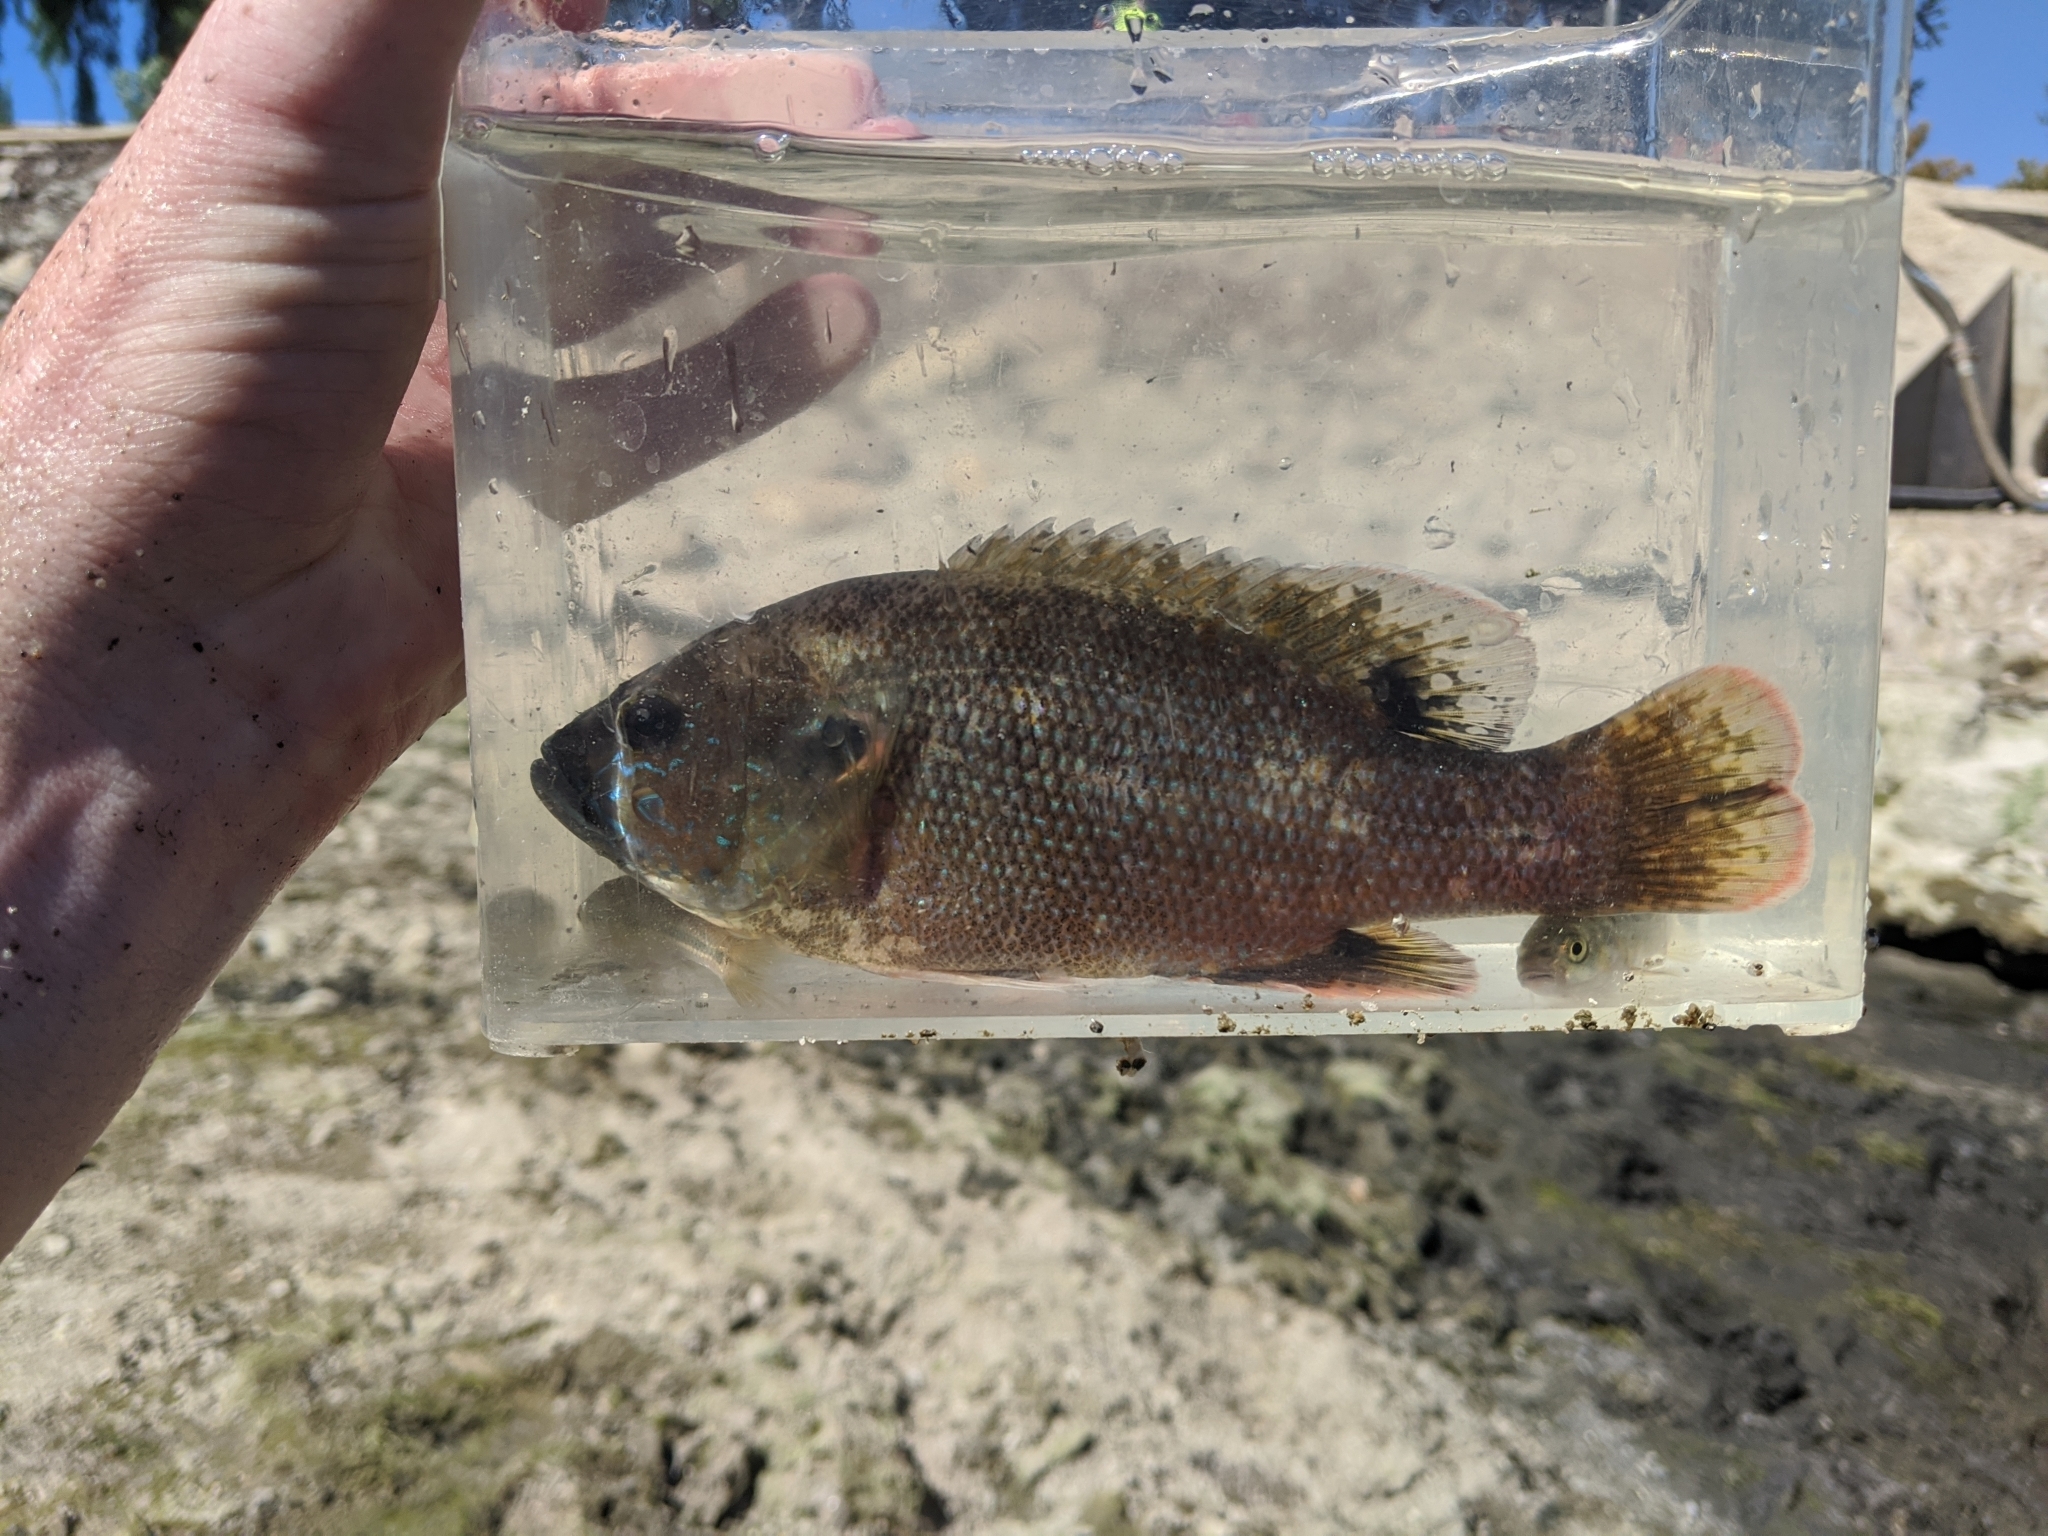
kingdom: Animalia
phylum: Chordata
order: Perciformes
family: Centrarchidae
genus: Lepomis
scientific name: Lepomis cyanellus
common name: Green sunfish
